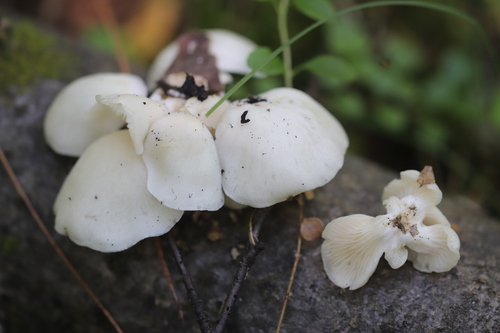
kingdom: Fungi
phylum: Basidiomycota
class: Agaricomycetes
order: Agaricales
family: Pleurotaceae
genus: Pleurotus
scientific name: Pleurotus pulmonarius
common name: Pale oyster
